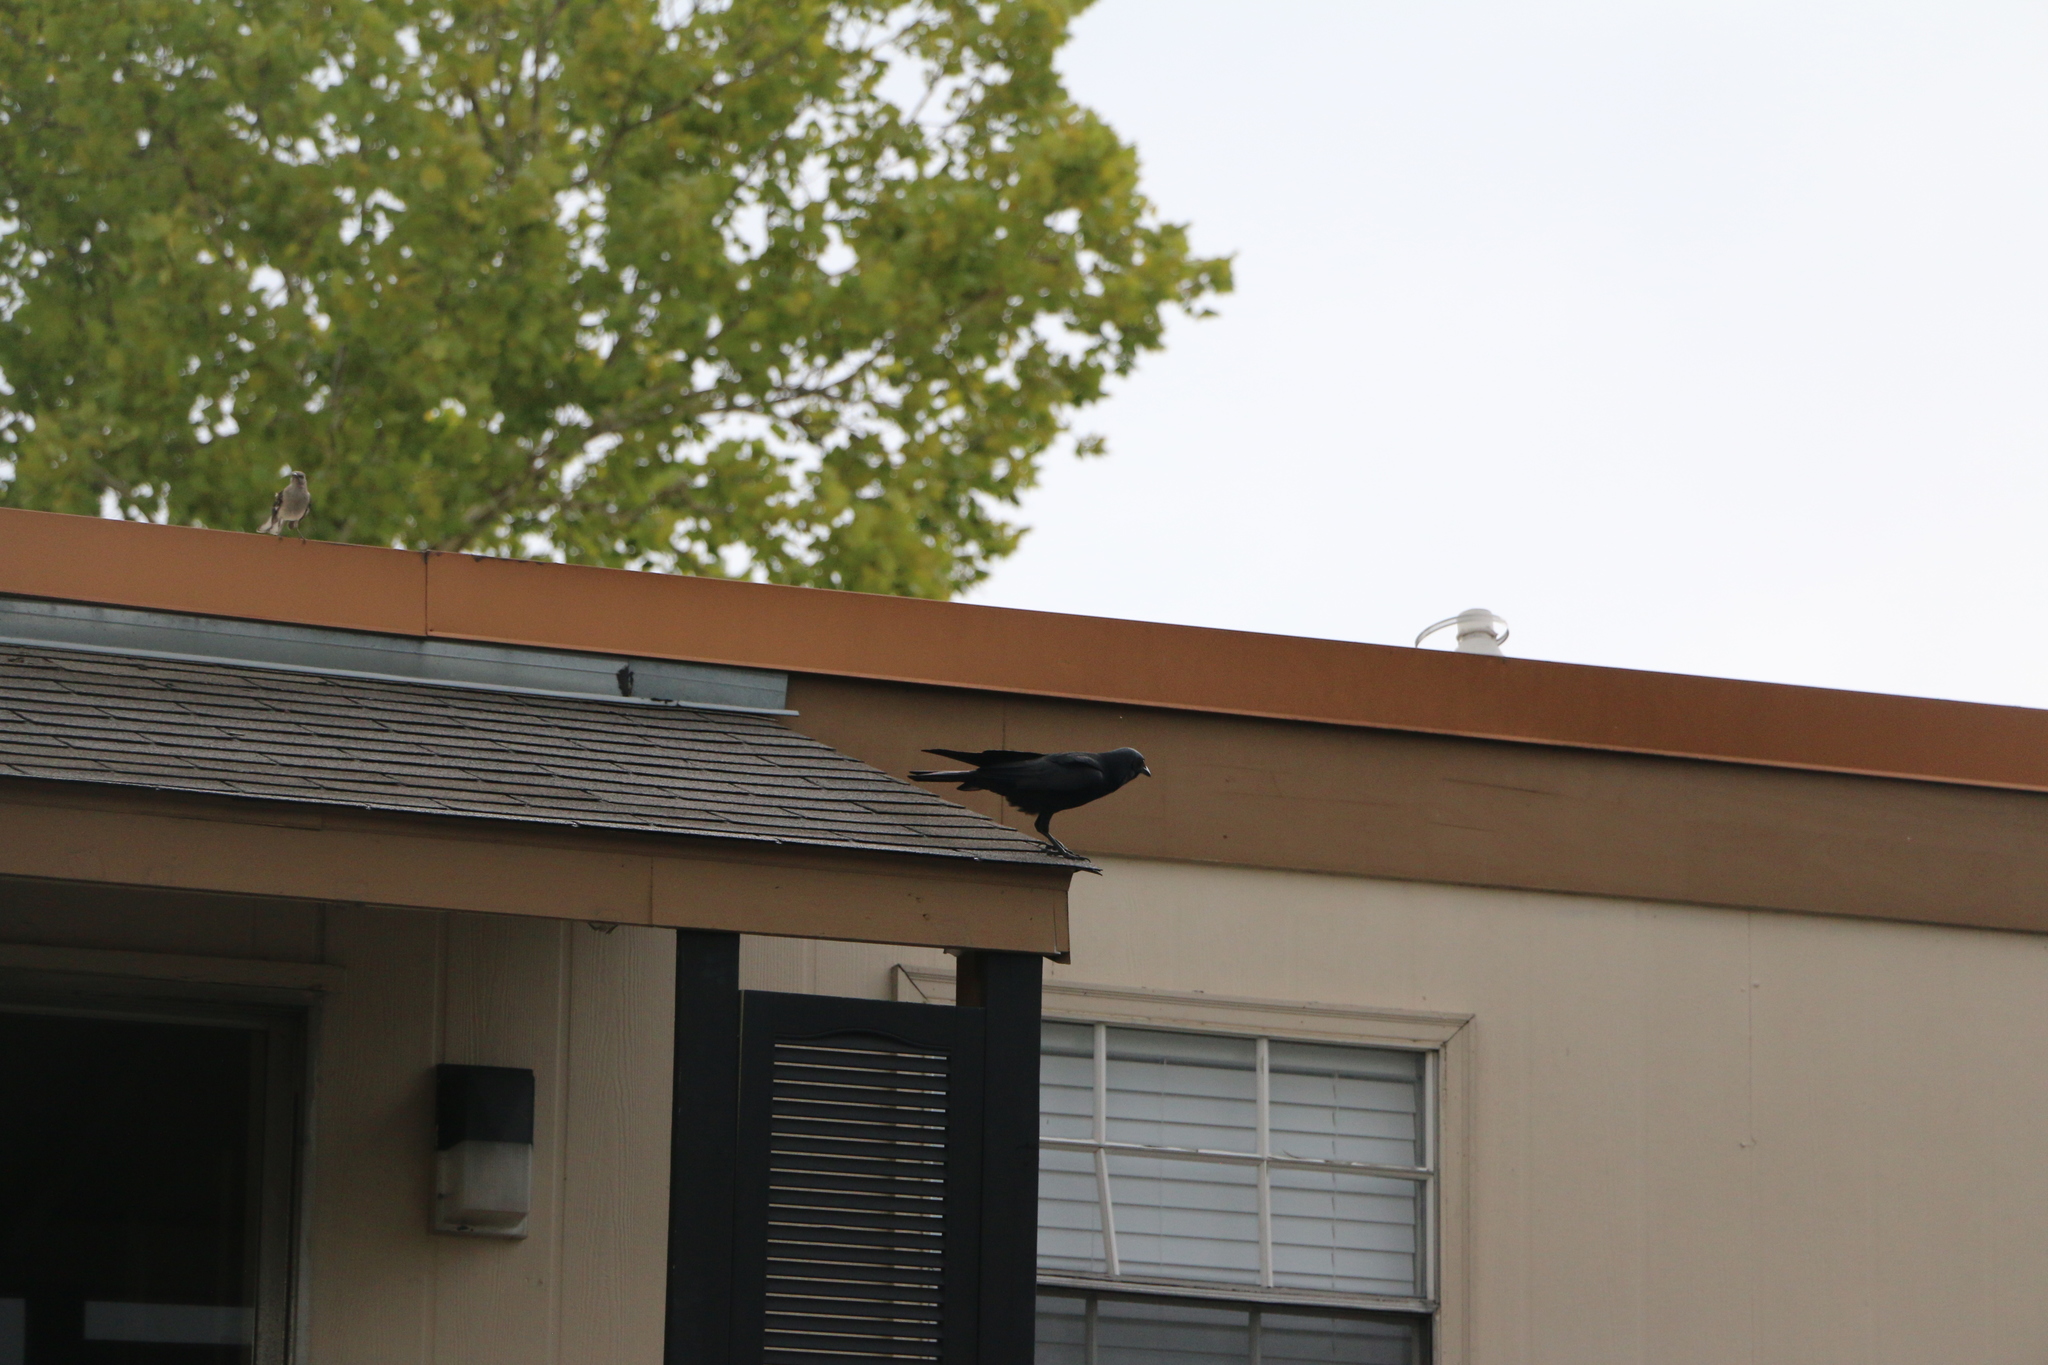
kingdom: Animalia
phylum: Chordata
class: Aves
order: Passeriformes
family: Corvidae
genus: Corvus
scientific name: Corvus brachyrhynchos
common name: American crow
